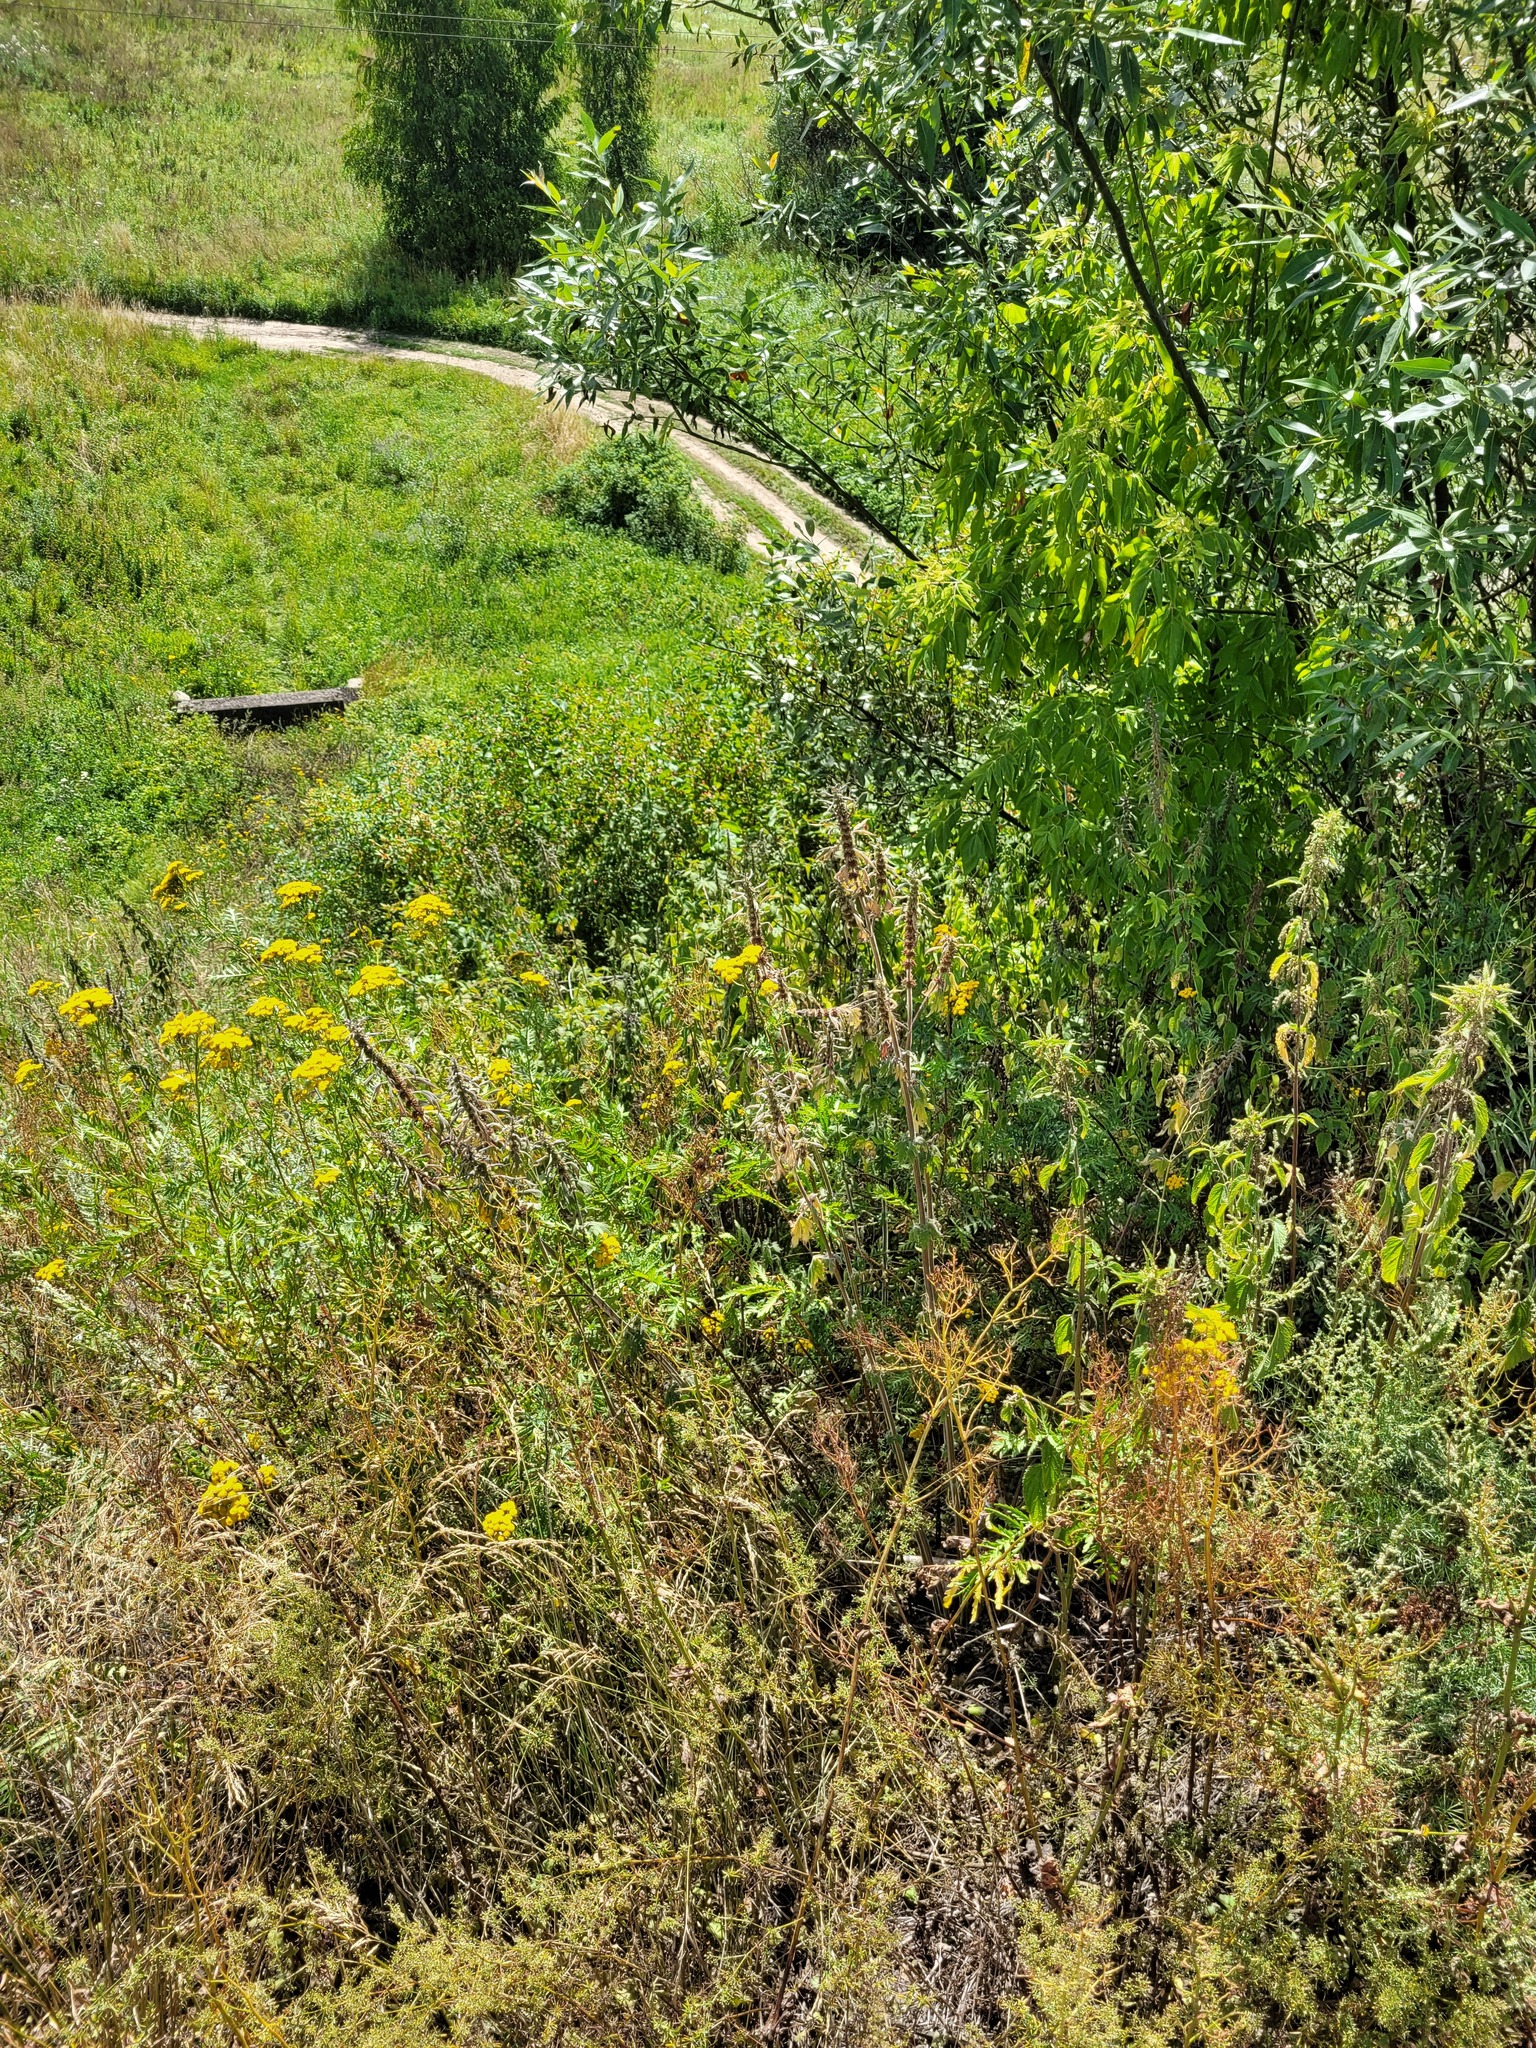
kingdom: Plantae
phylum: Tracheophyta
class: Magnoliopsida
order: Lamiales
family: Lamiaceae
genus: Leonurus
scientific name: Leonurus quinquelobatus
